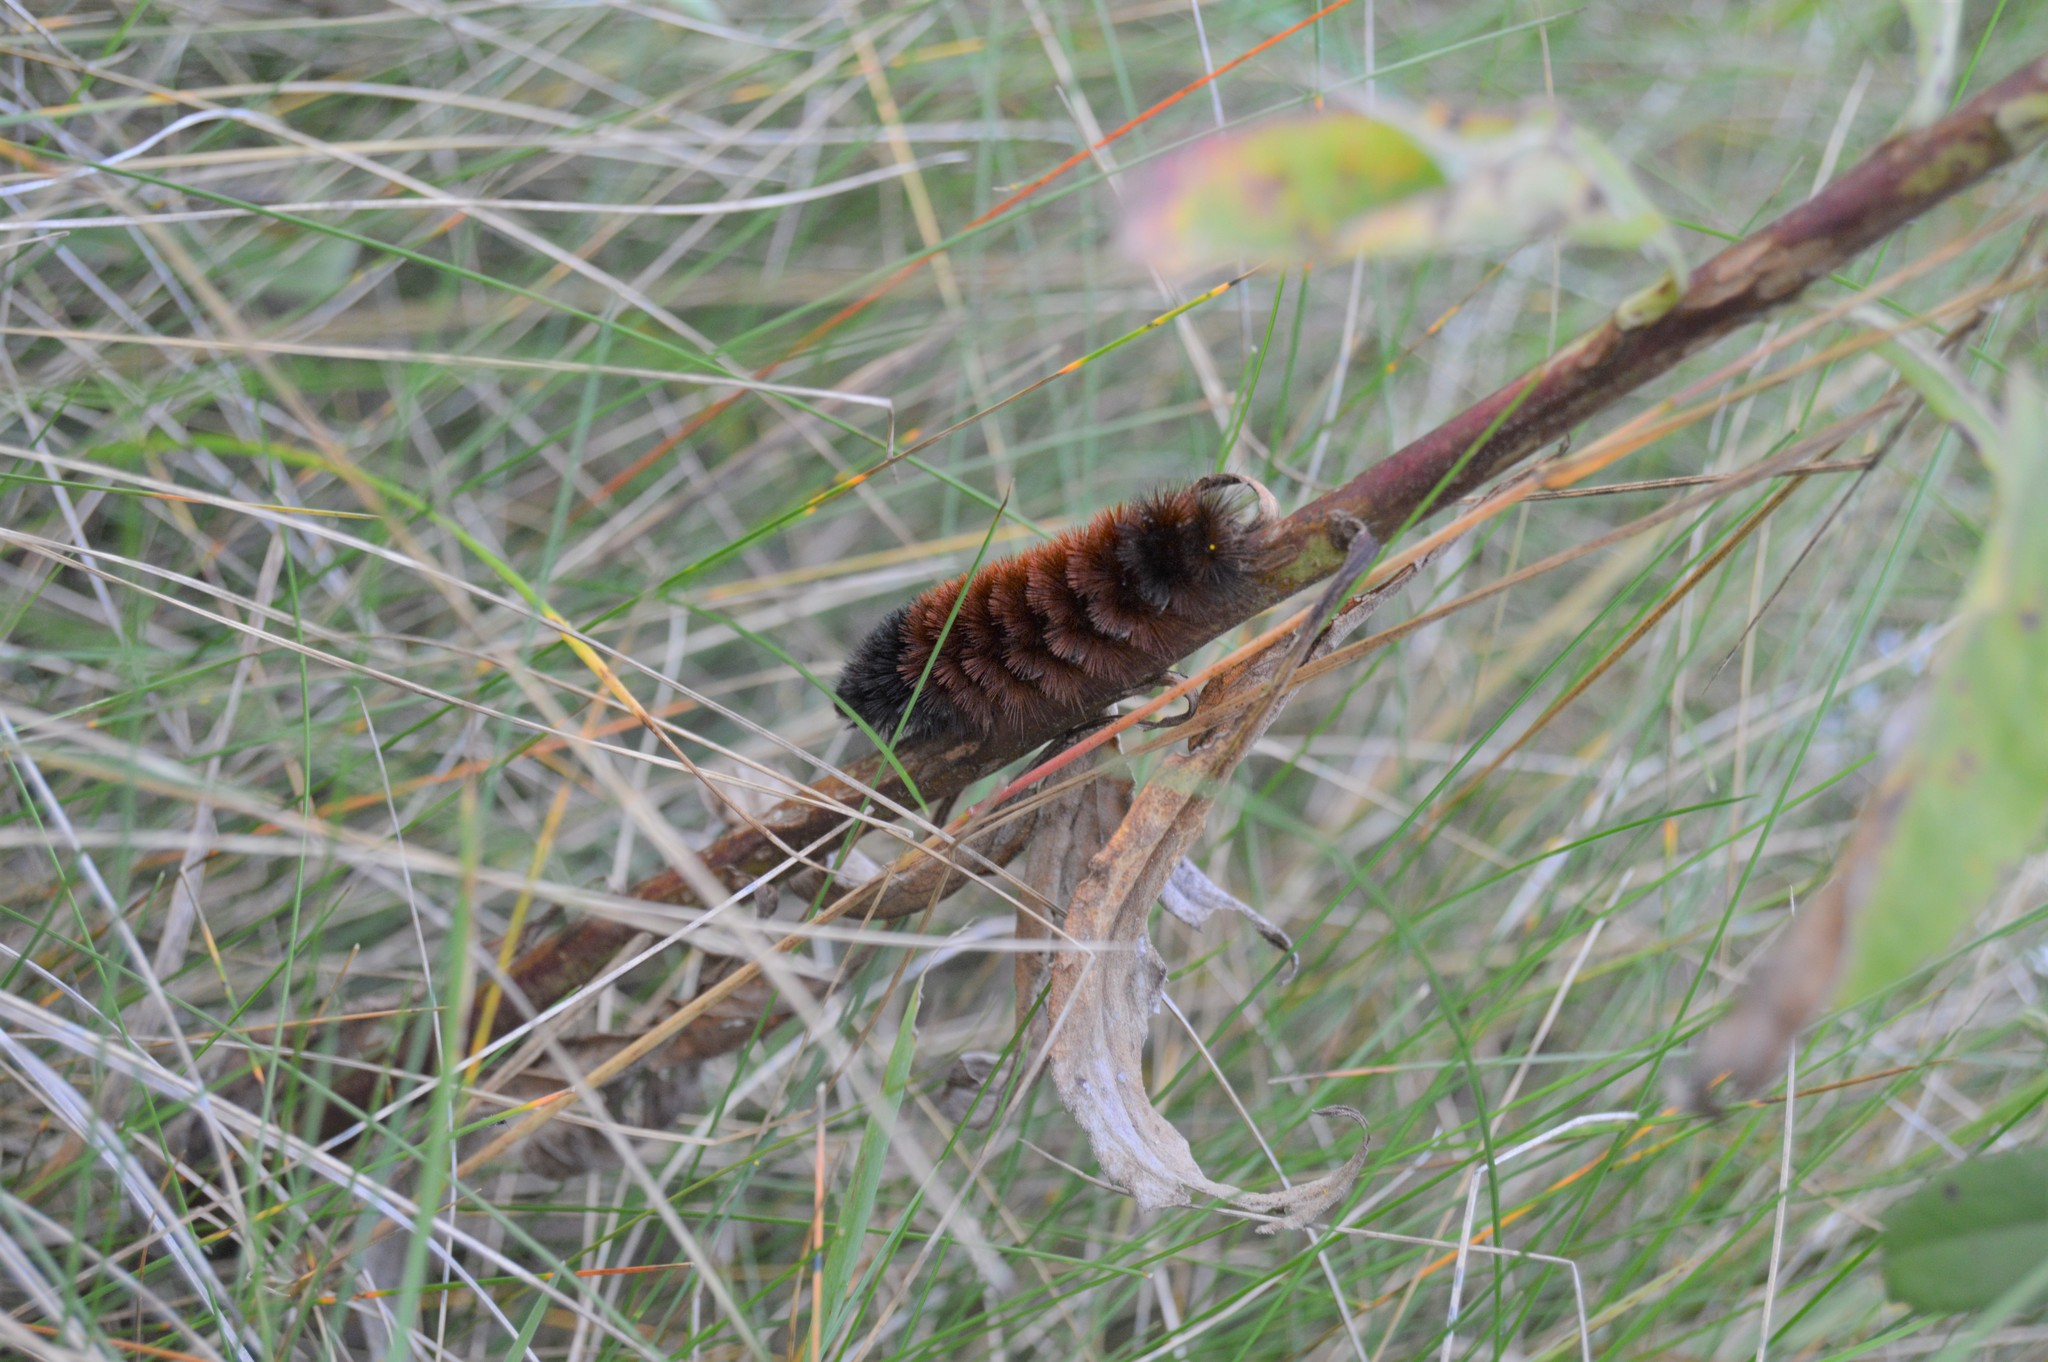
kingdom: Animalia
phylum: Arthropoda
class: Insecta
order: Lepidoptera
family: Erebidae
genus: Pyrrharctia
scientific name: Pyrrharctia isabella
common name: Isabella tiger moth
